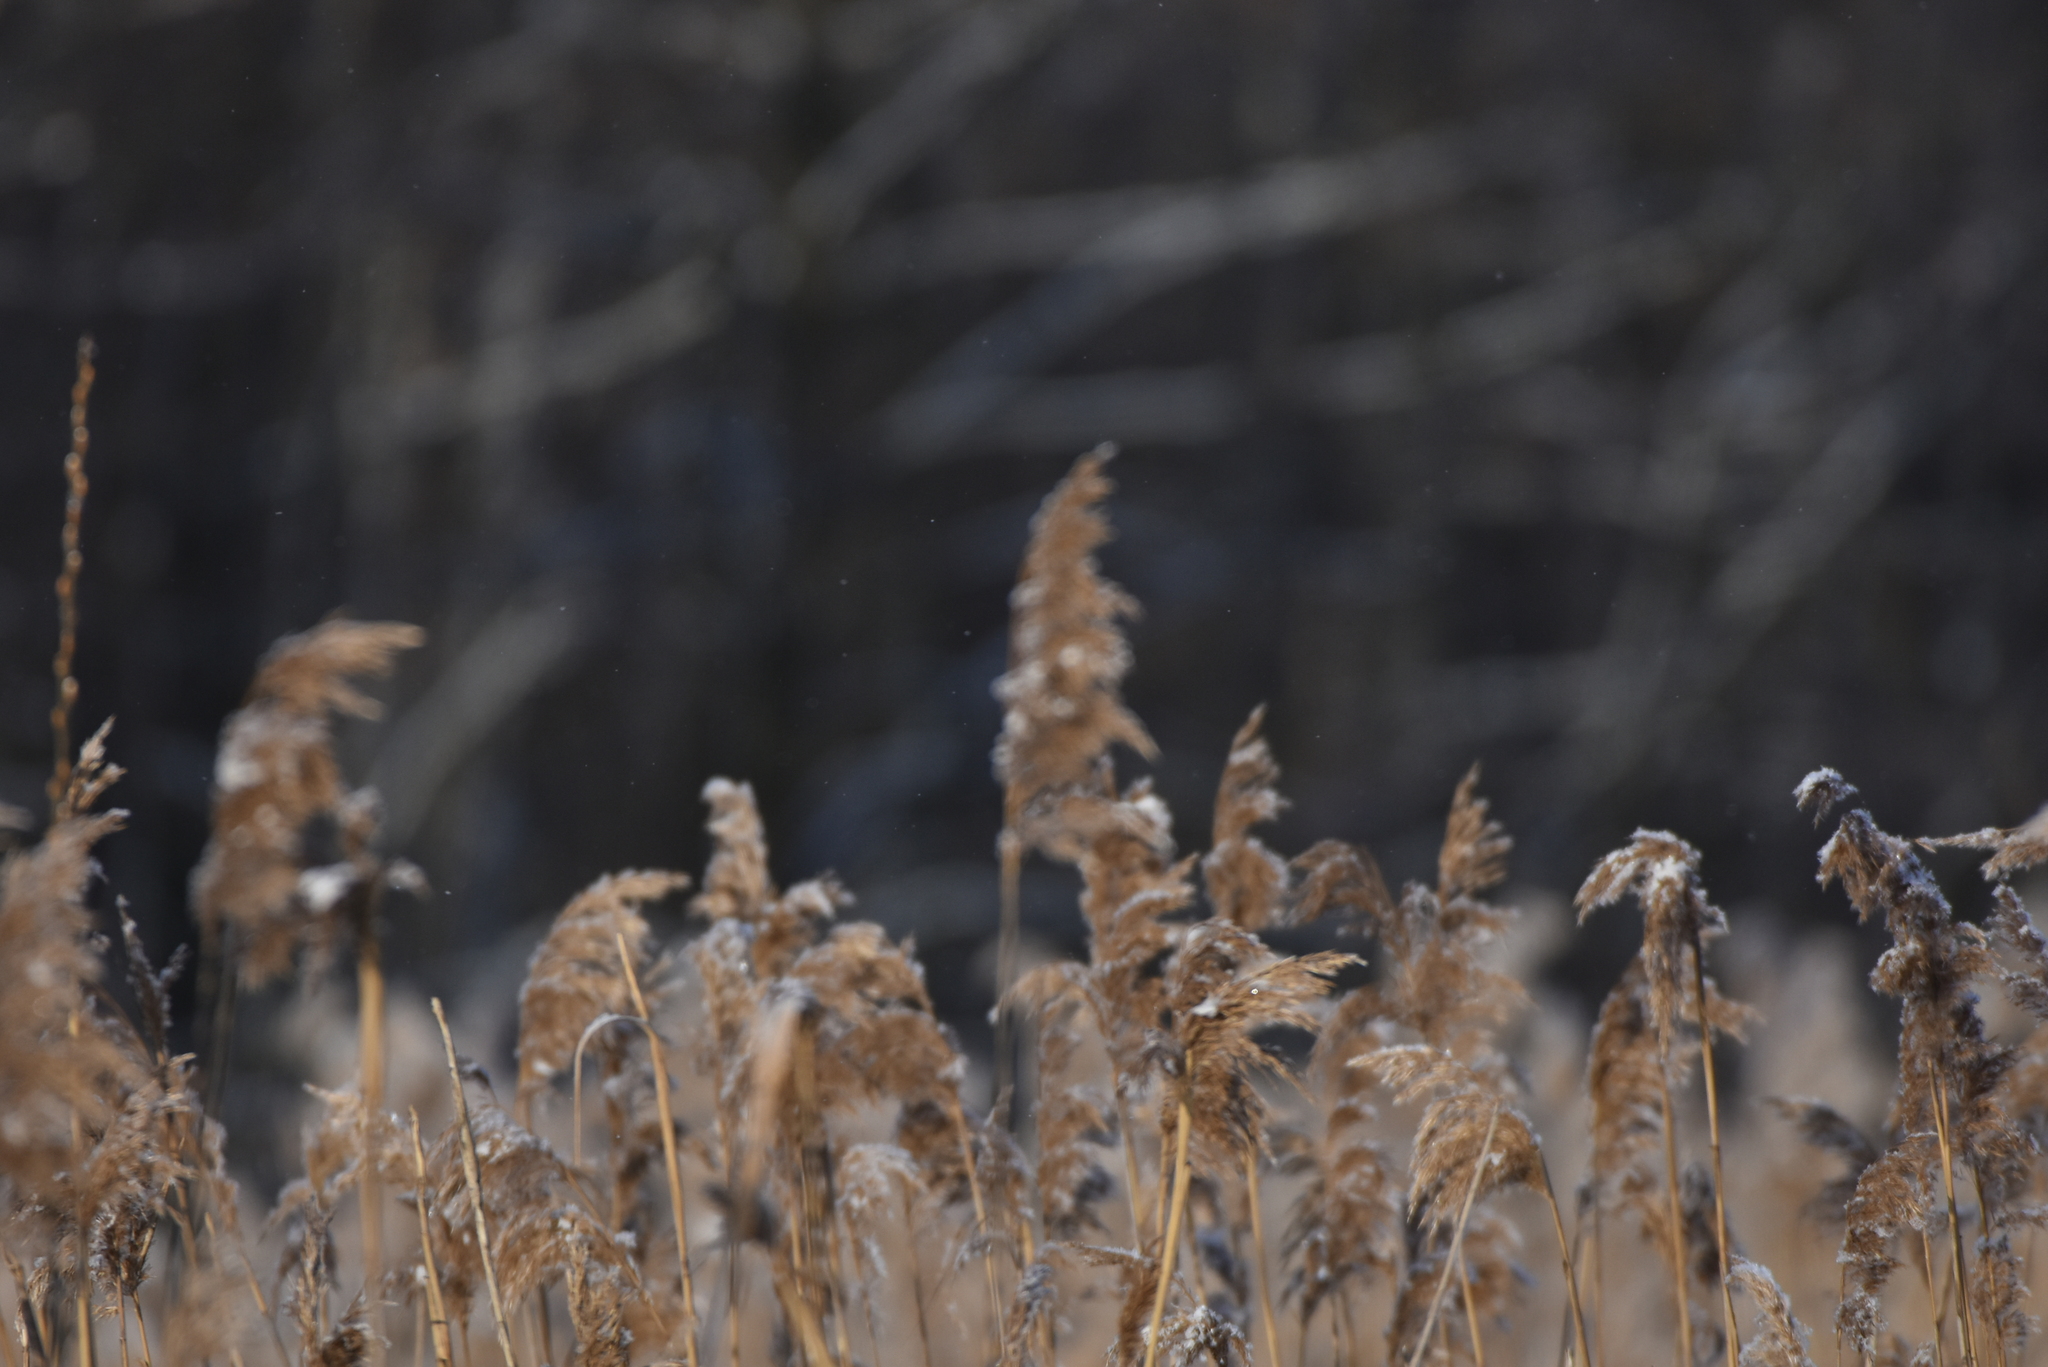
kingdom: Plantae
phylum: Tracheophyta
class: Liliopsida
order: Poales
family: Poaceae
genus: Phragmites
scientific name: Phragmites australis
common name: Common reed
